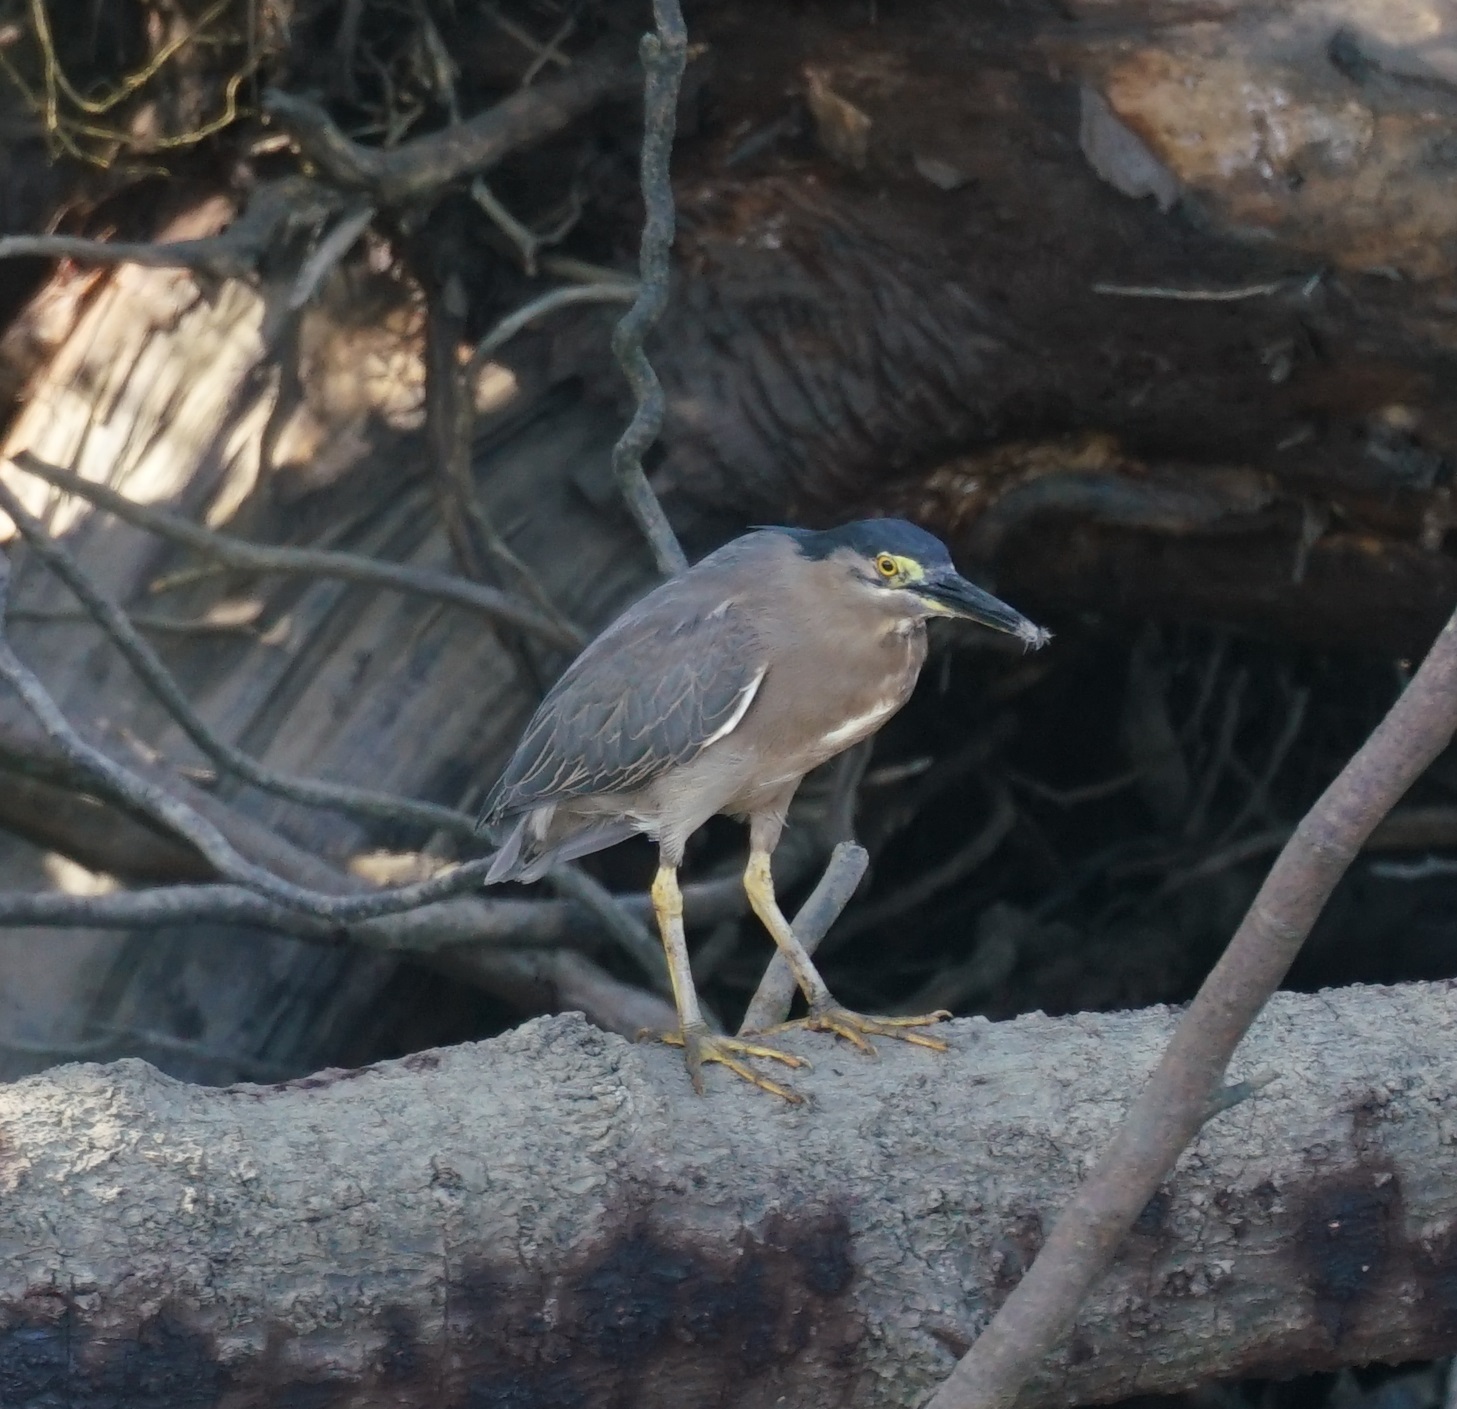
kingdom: Animalia
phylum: Chordata
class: Aves
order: Pelecaniformes
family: Ardeidae
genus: Butorides
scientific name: Butorides striata
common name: Striated heron
